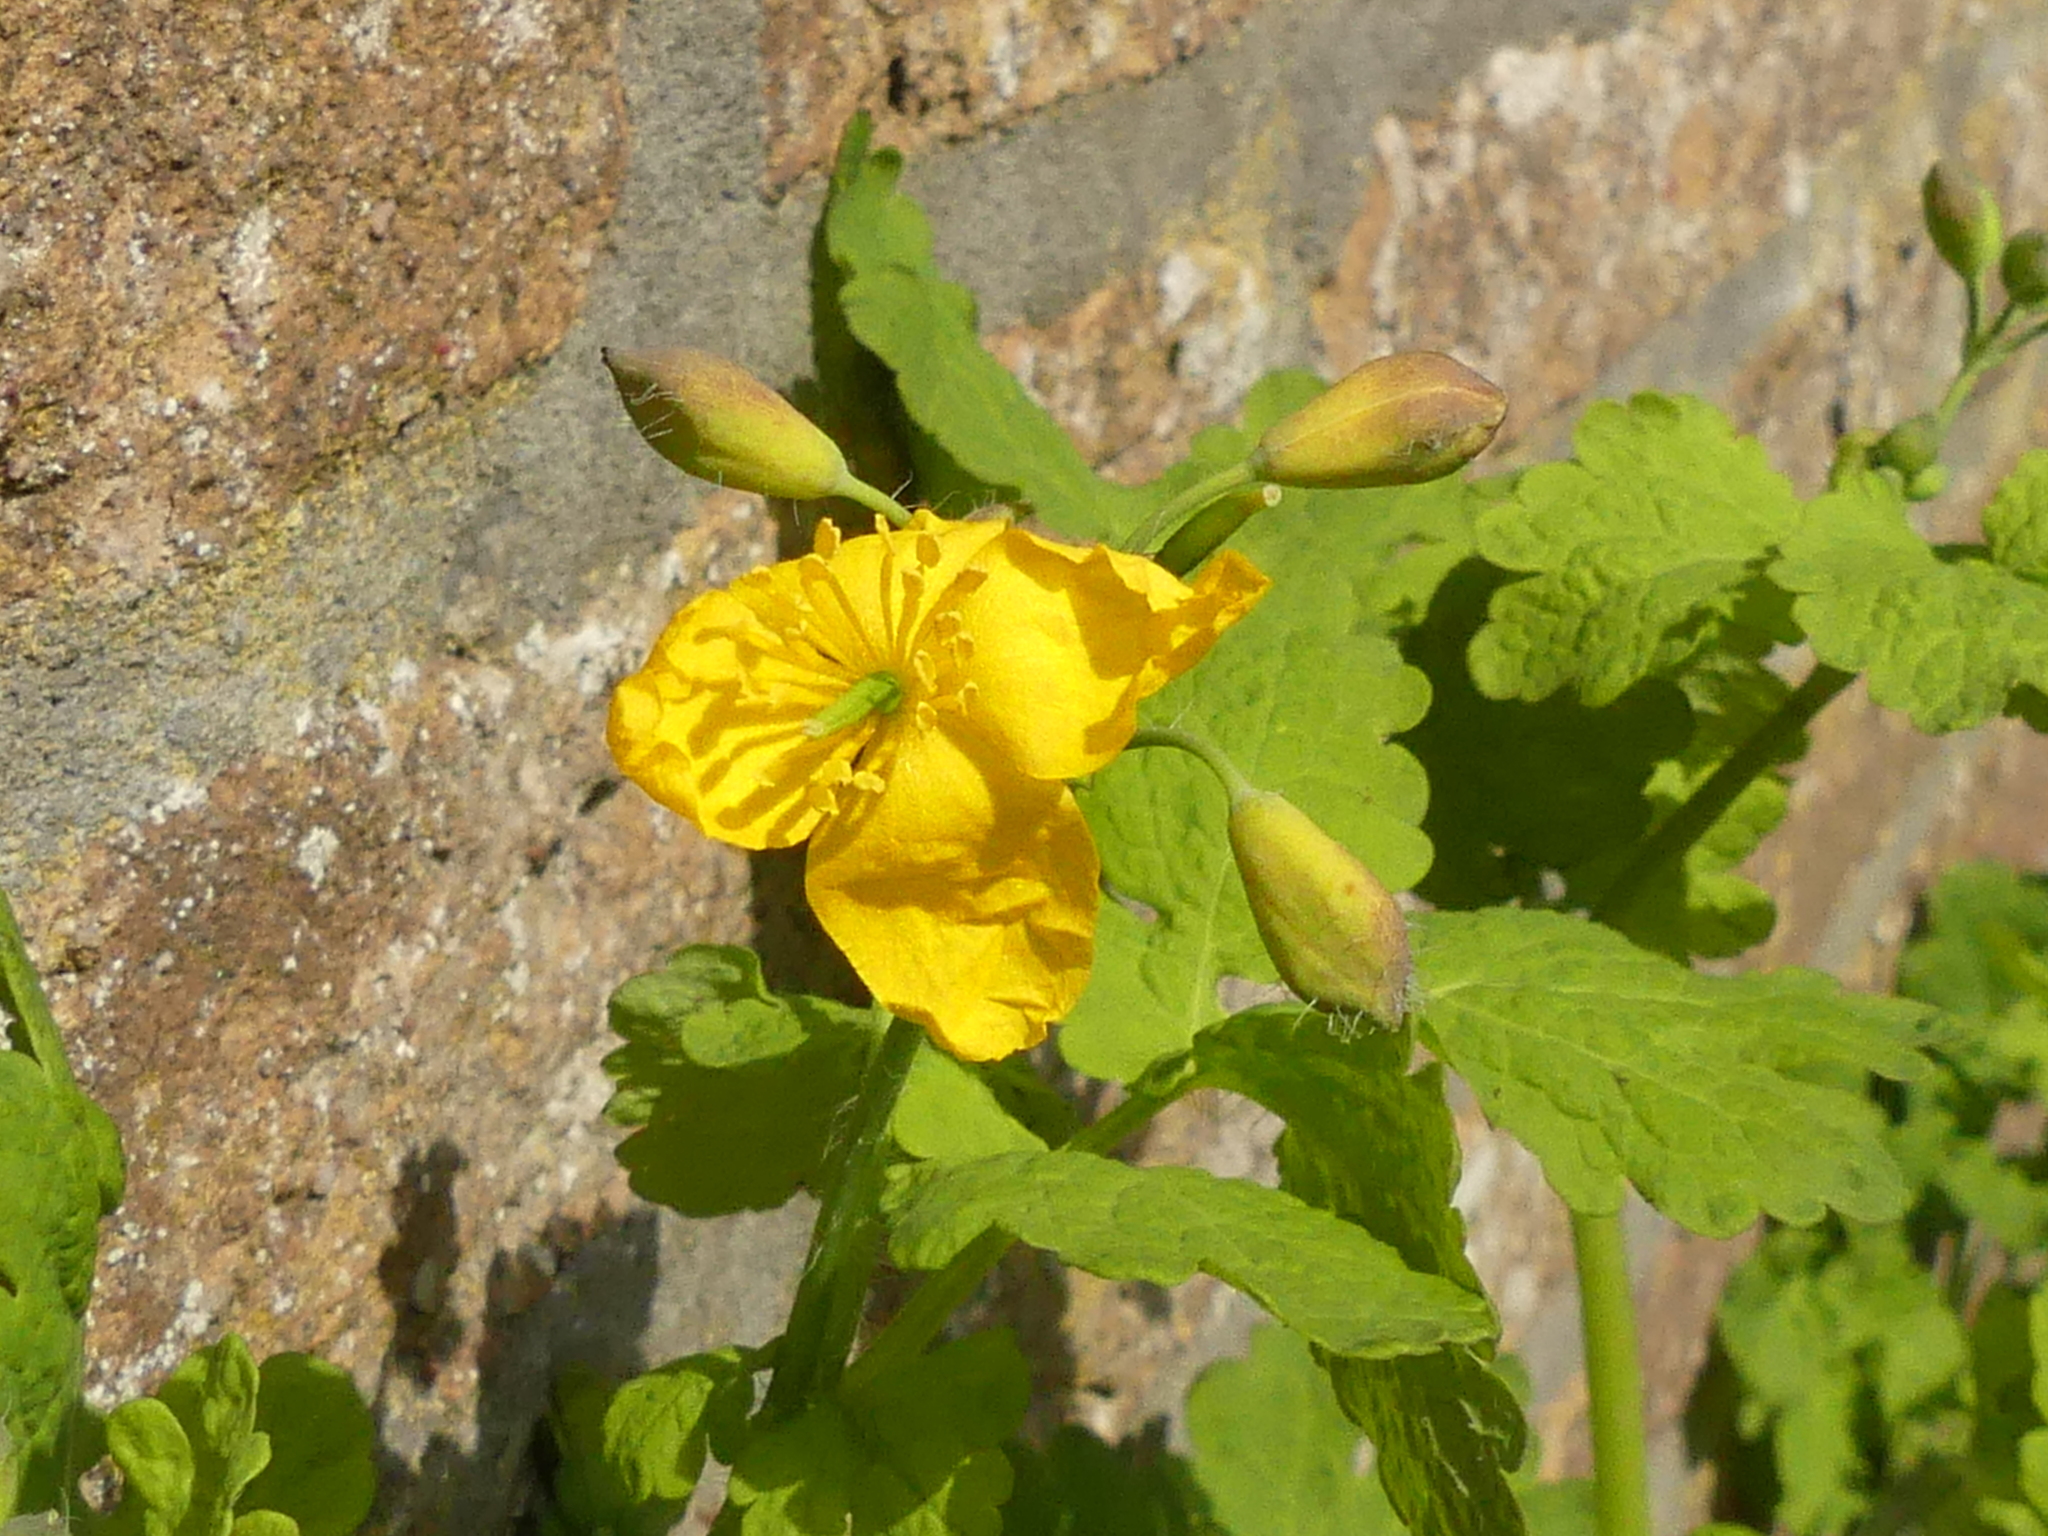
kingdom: Plantae
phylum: Tracheophyta
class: Magnoliopsida
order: Ranunculales
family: Papaveraceae
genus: Chelidonium
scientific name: Chelidonium majus
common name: Greater celandine
